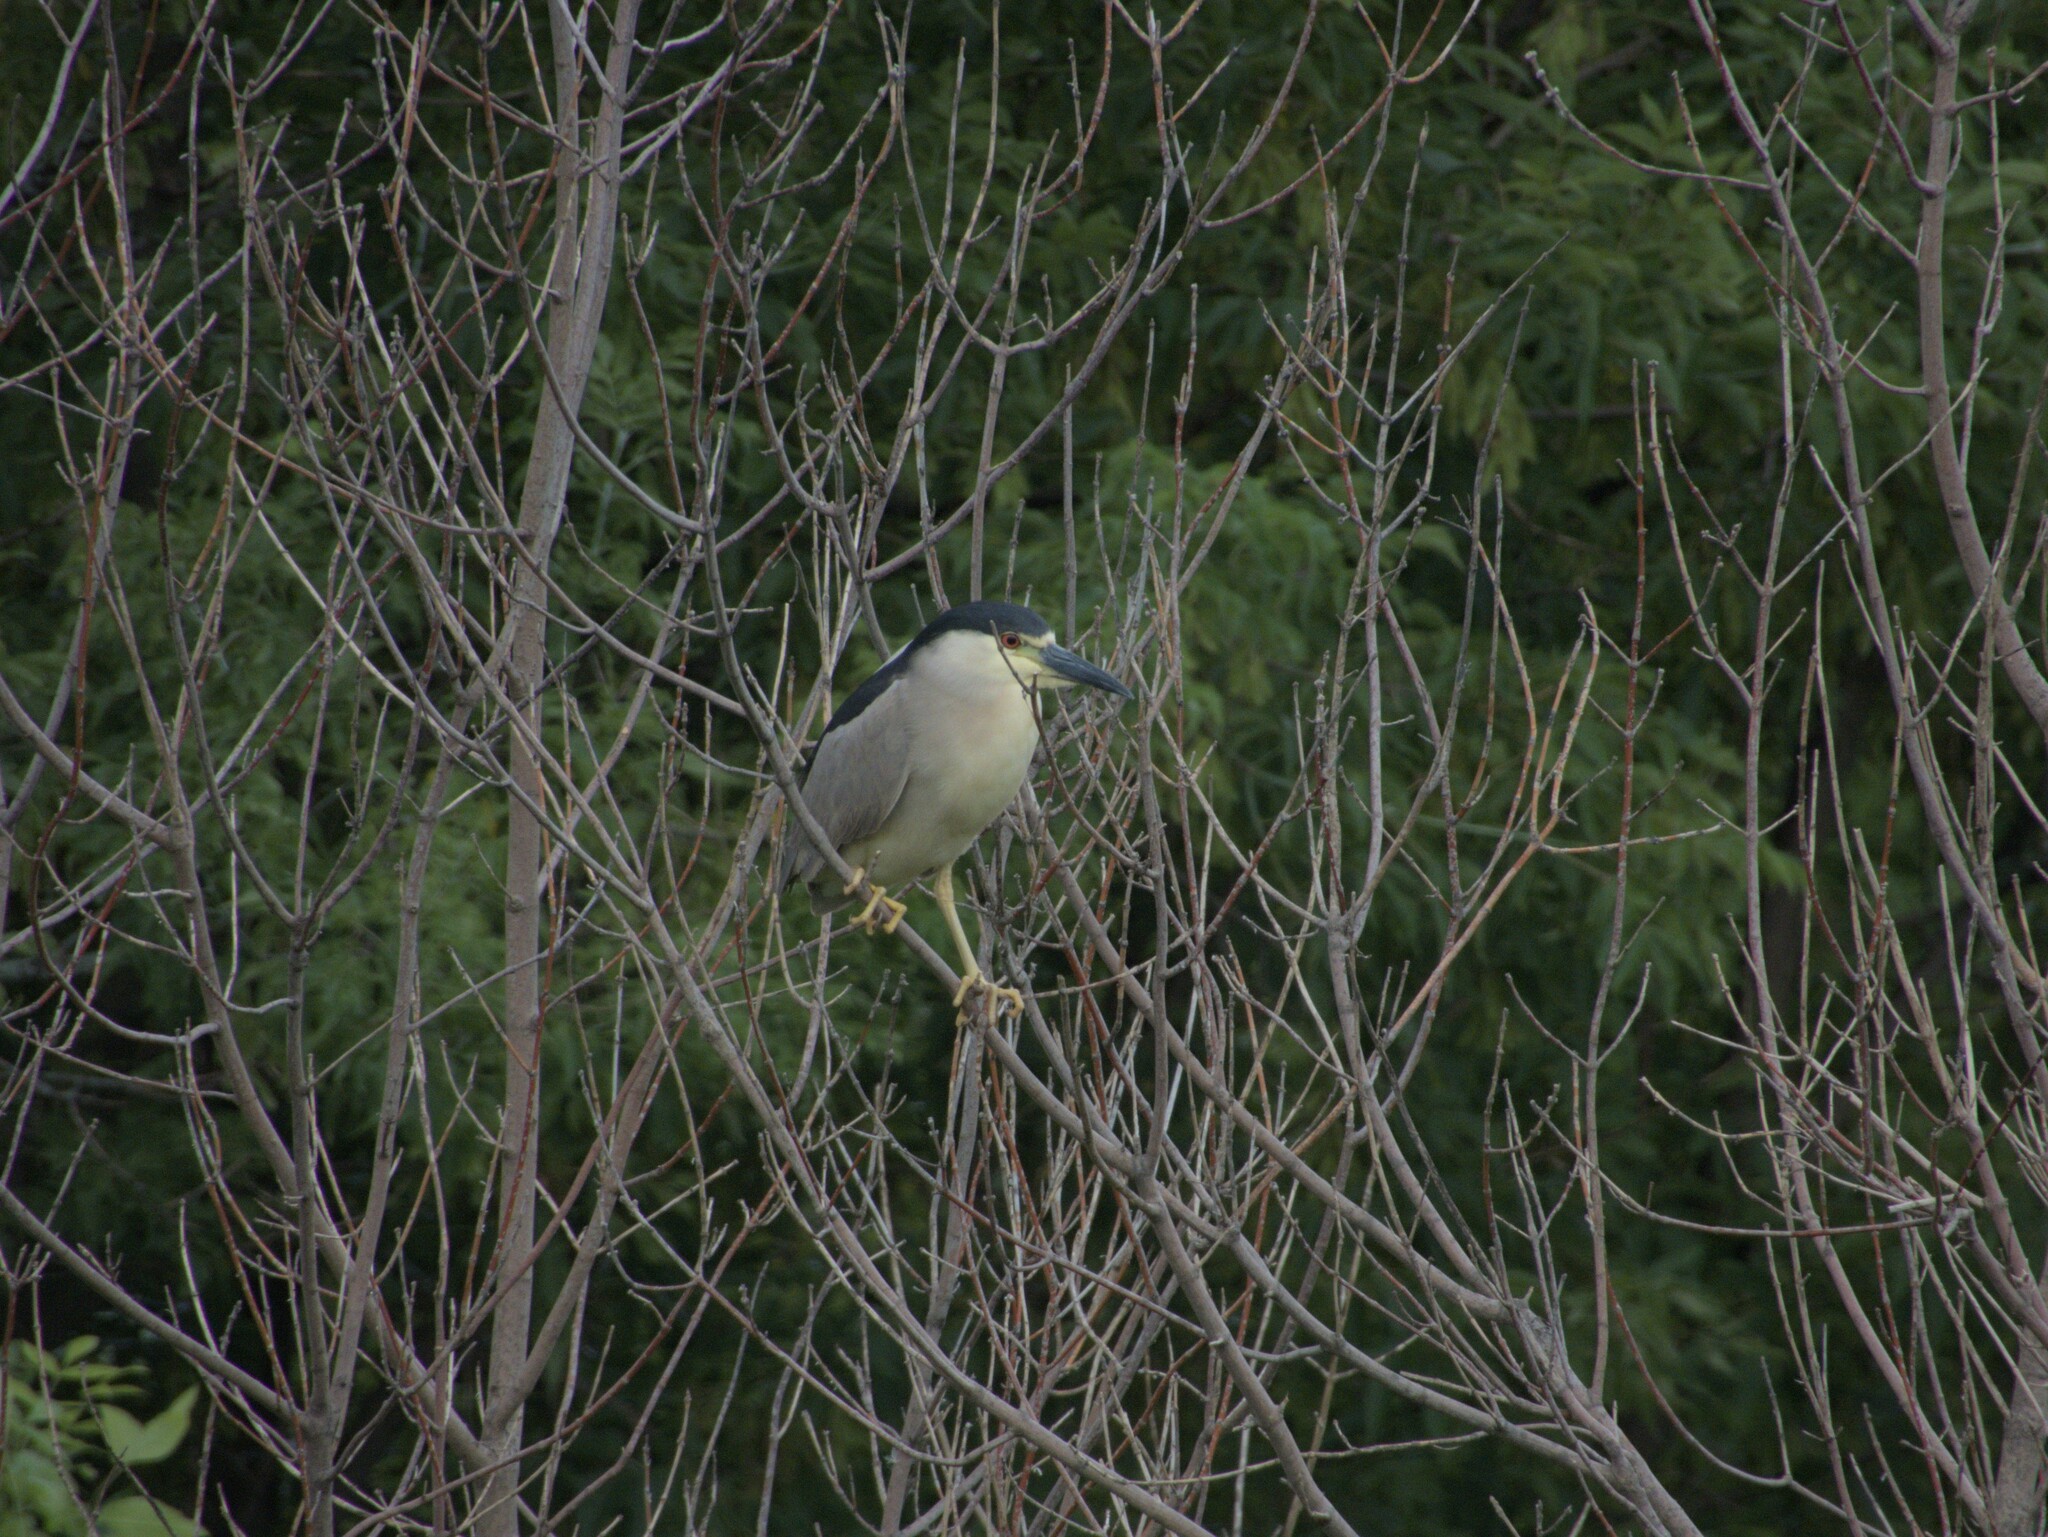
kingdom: Animalia
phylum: Chordata
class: Aves
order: Pelecaniformes
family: Ardeidae
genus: Nycticorax
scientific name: Nycticorax nycticorax
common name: Black-crowned night heron
